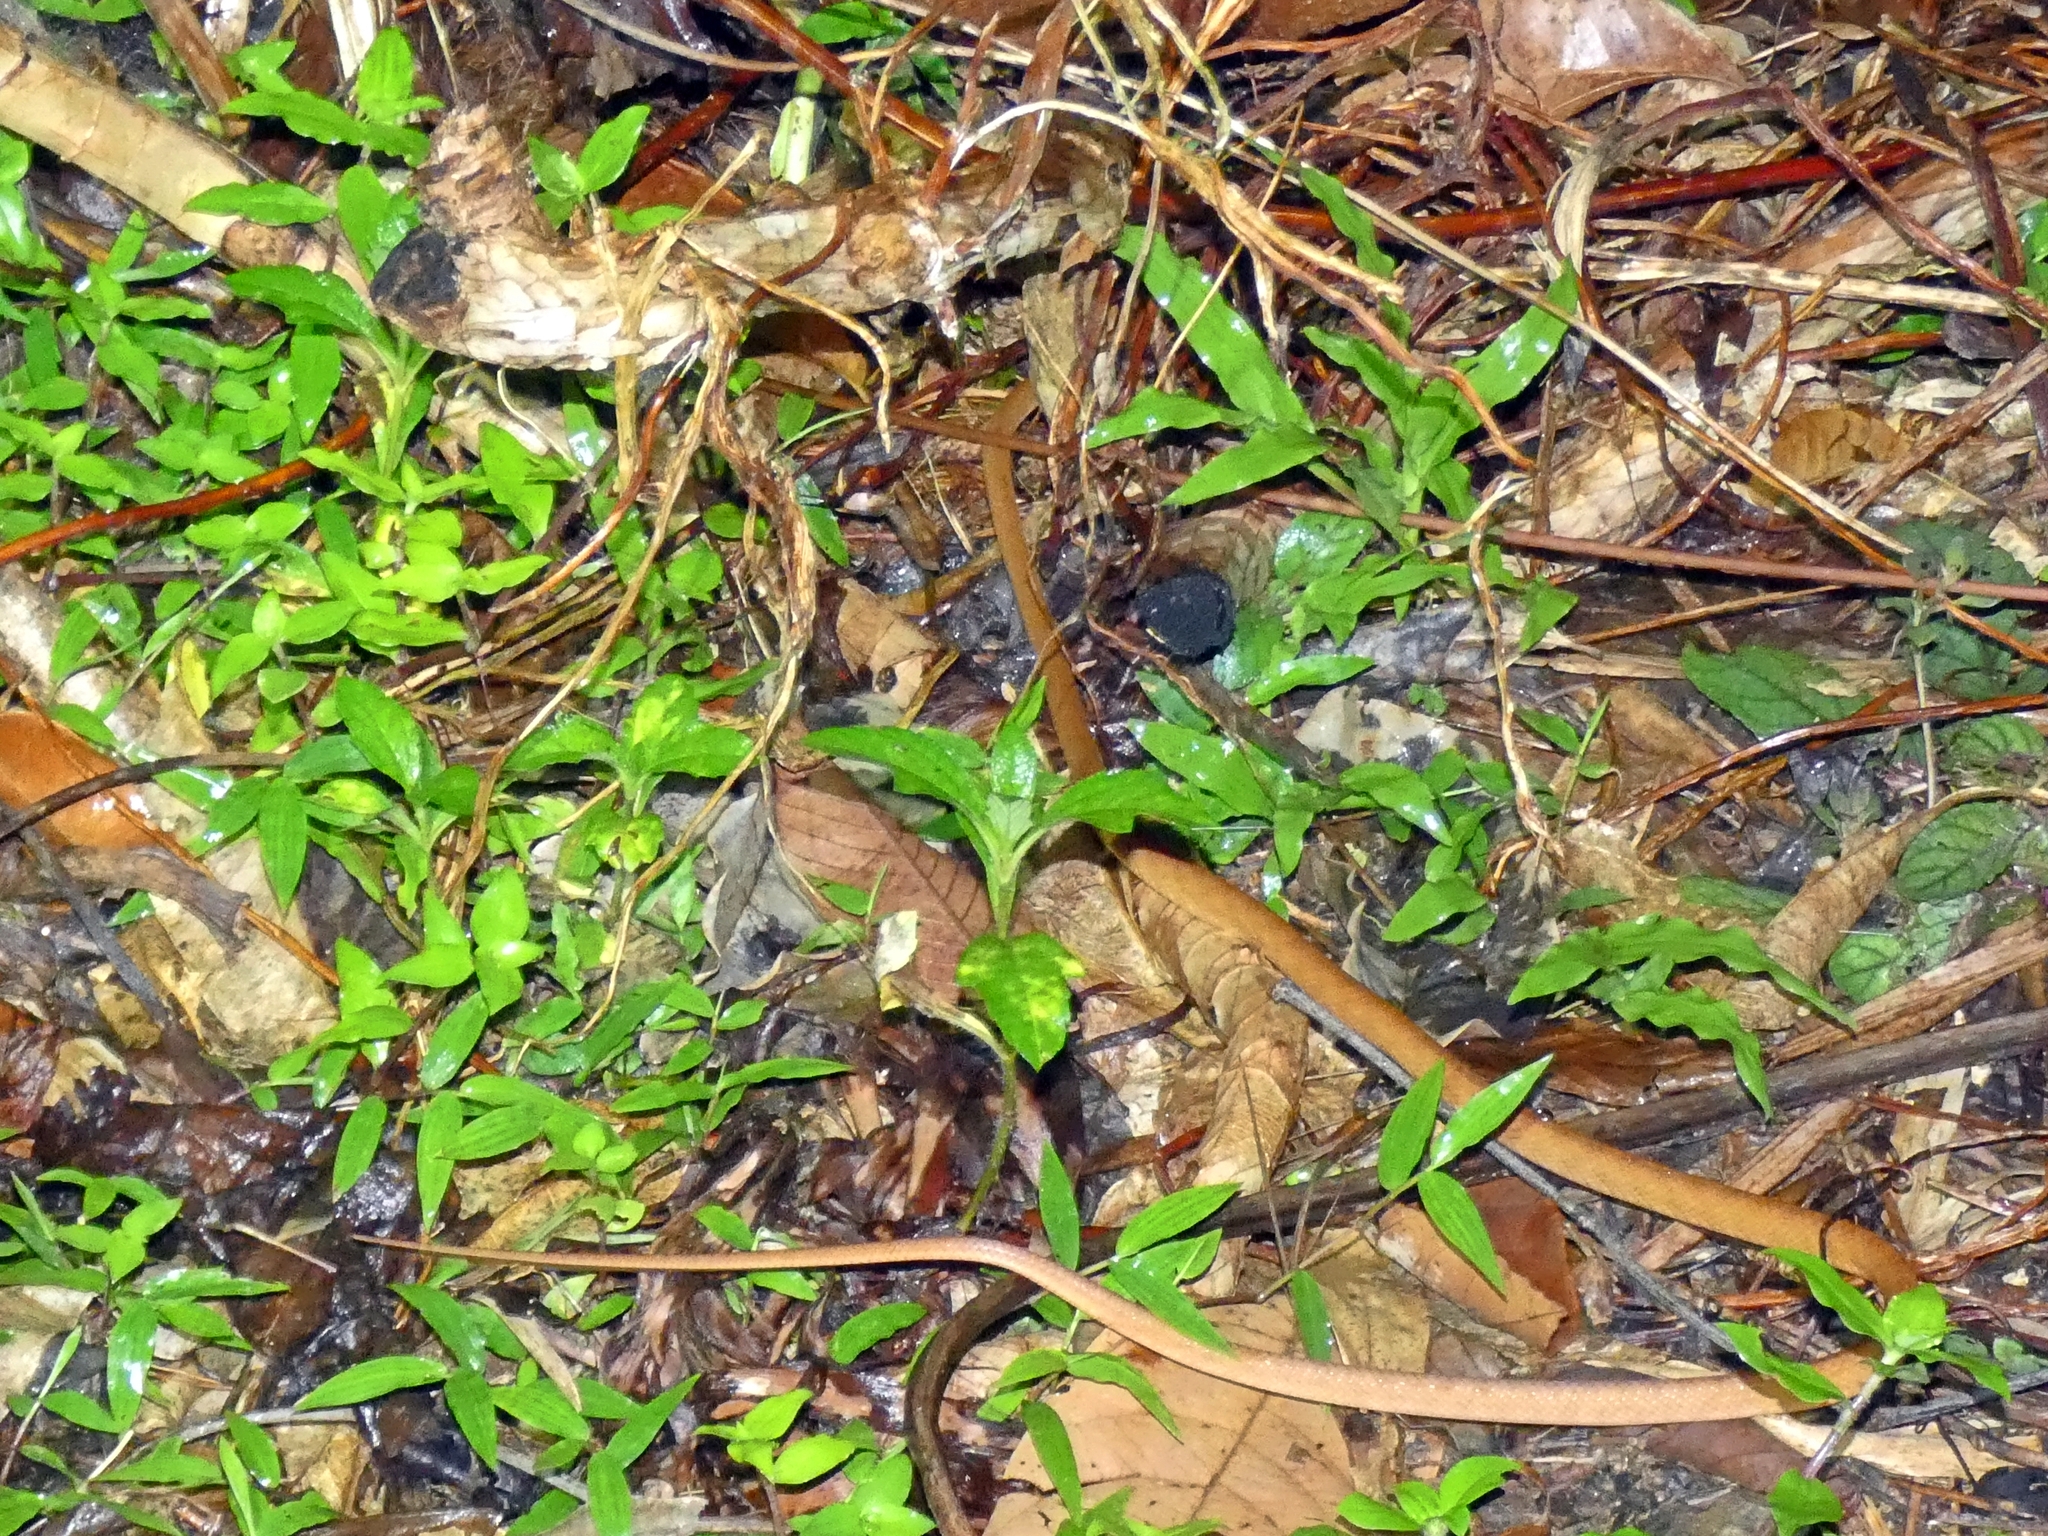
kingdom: Animalia
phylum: Chordata
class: Squamata
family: Colubridae
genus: Boiga
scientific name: Boiga irregularis
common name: Brown tree snake
